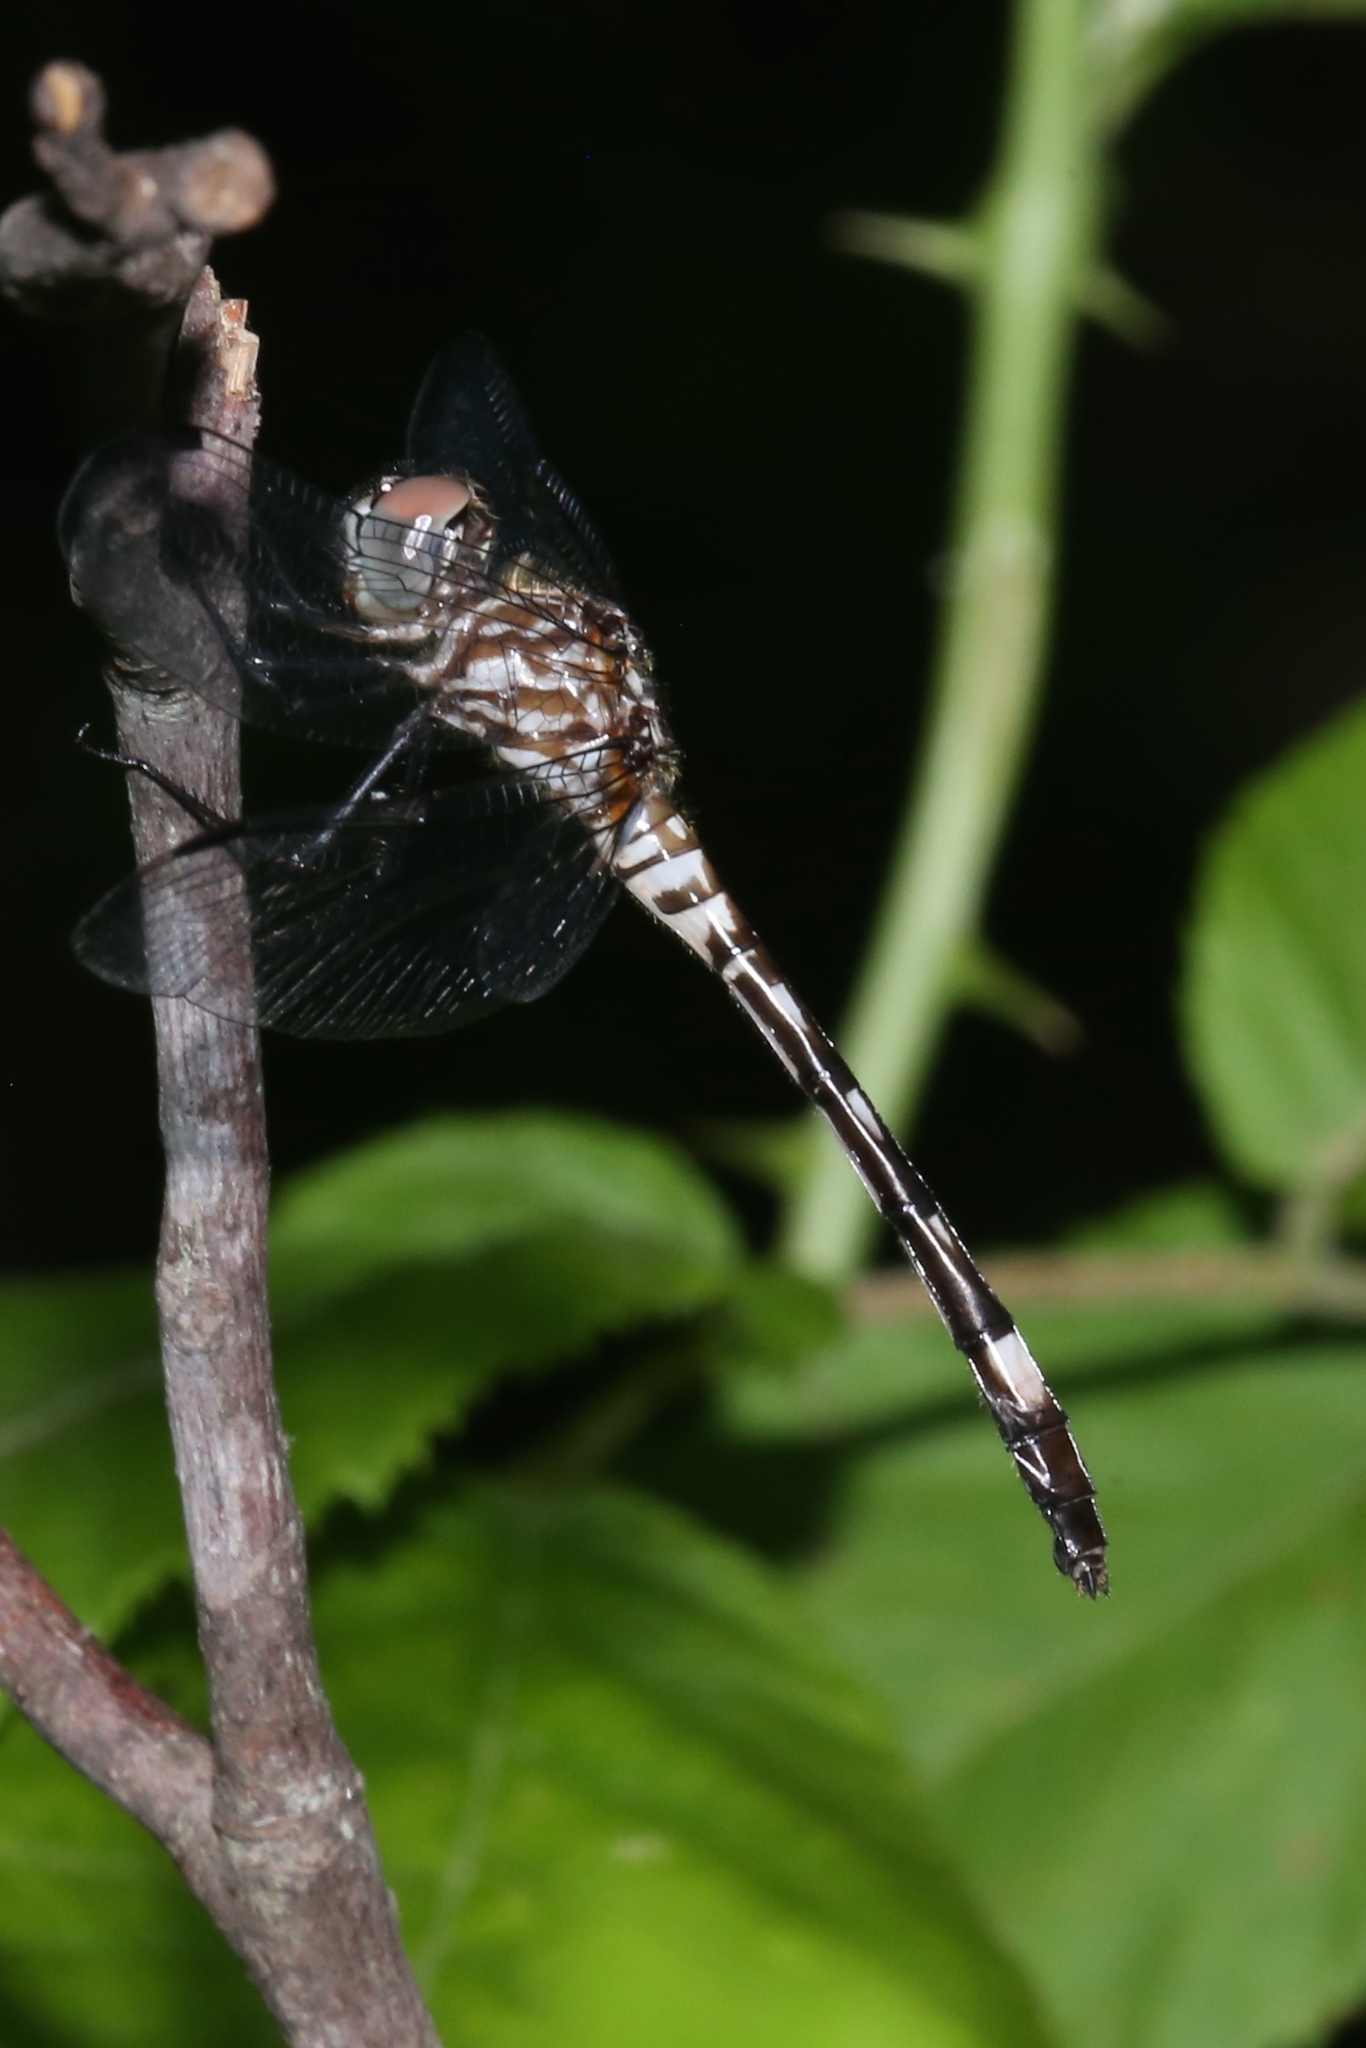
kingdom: Animalia
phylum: Arthropoda
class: Insecta
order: Odonata
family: Libellulidae
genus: Dythemis
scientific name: Dythemis velox
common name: Swift setwing
